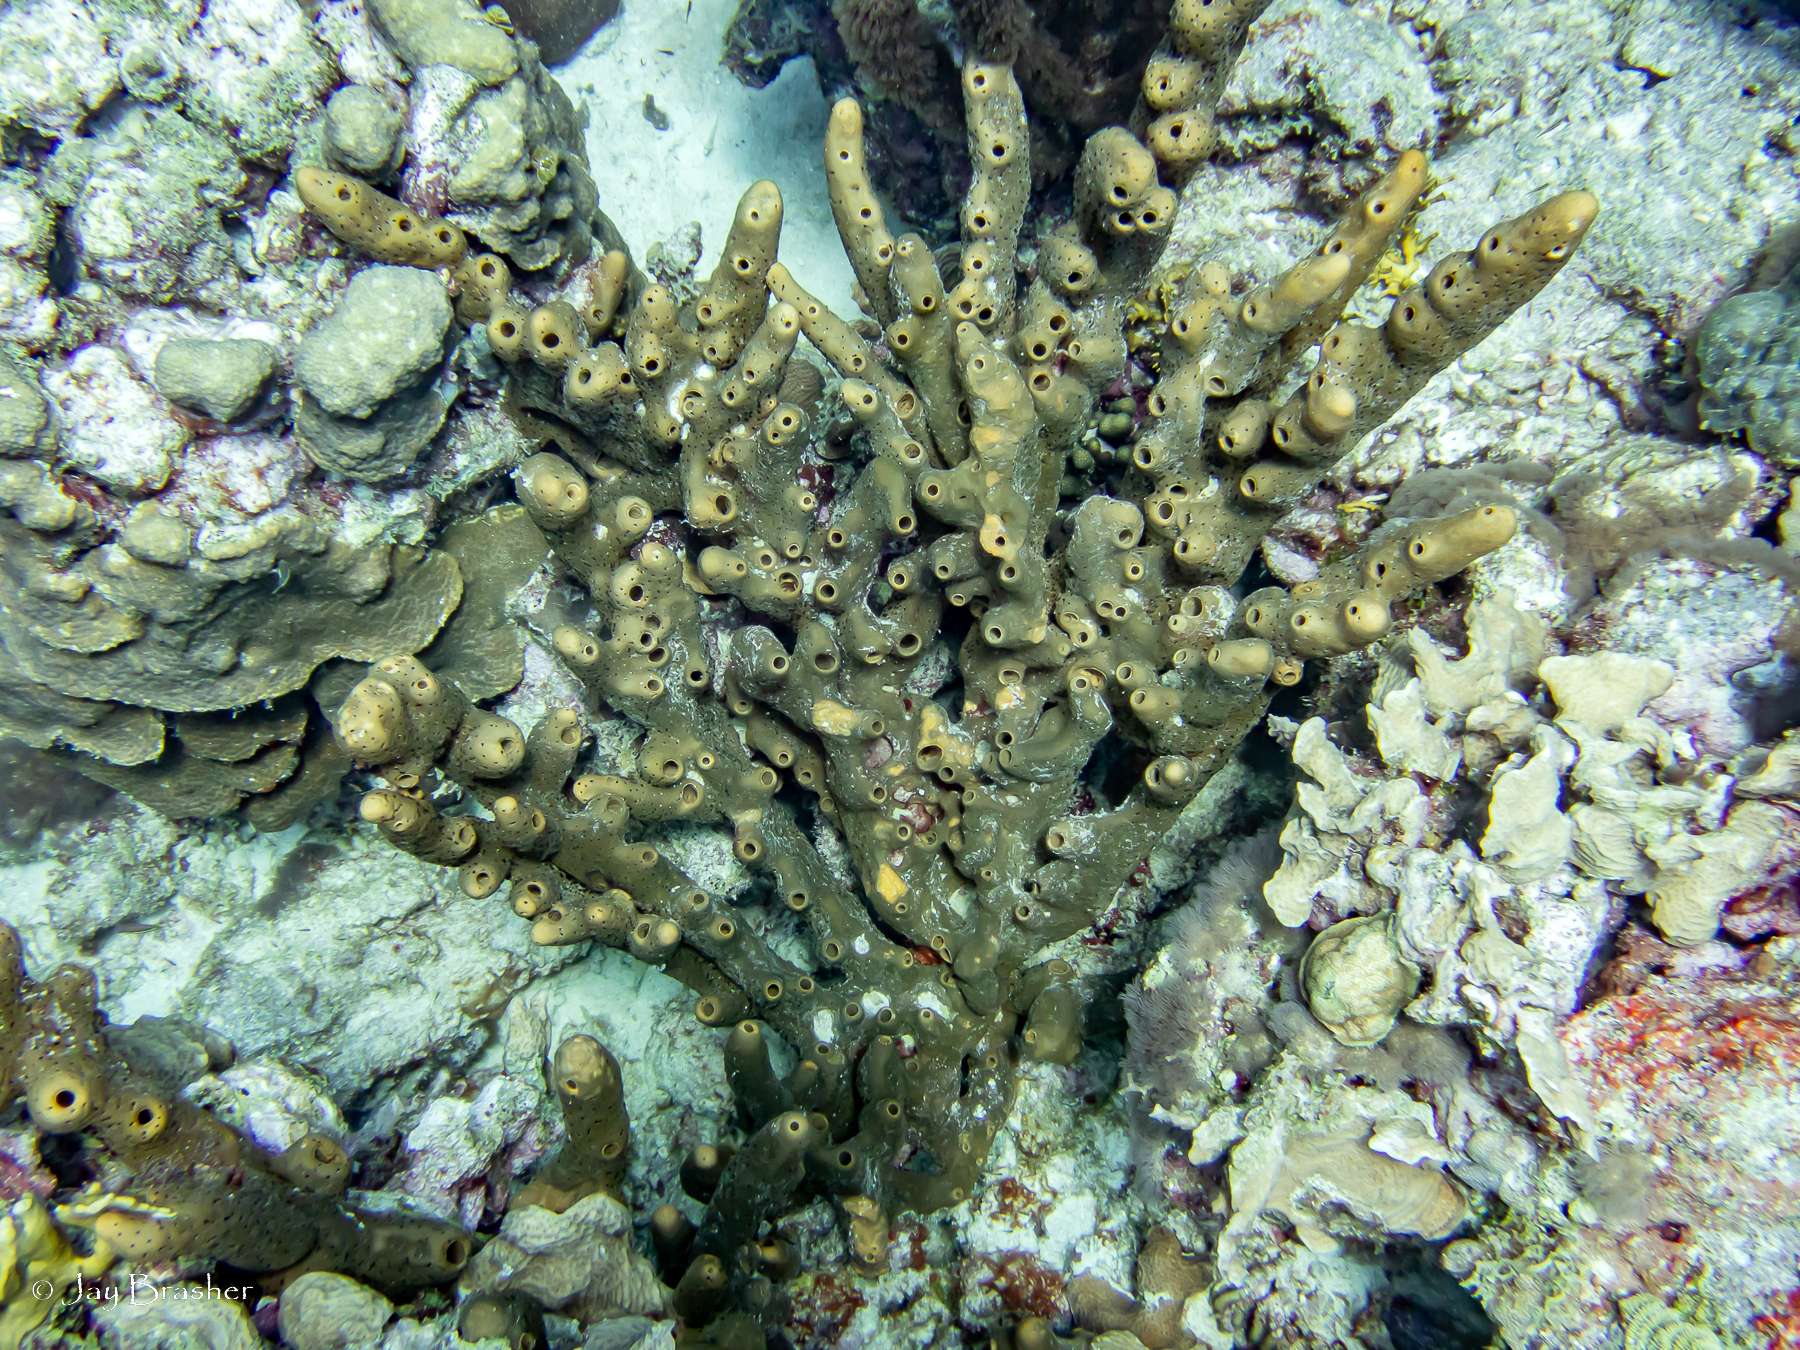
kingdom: Animalia
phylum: Porifera
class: Demospongiae
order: Agelasida
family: Agelasidae
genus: Agelas
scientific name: Agelas conifera
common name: Brown tube sponge
